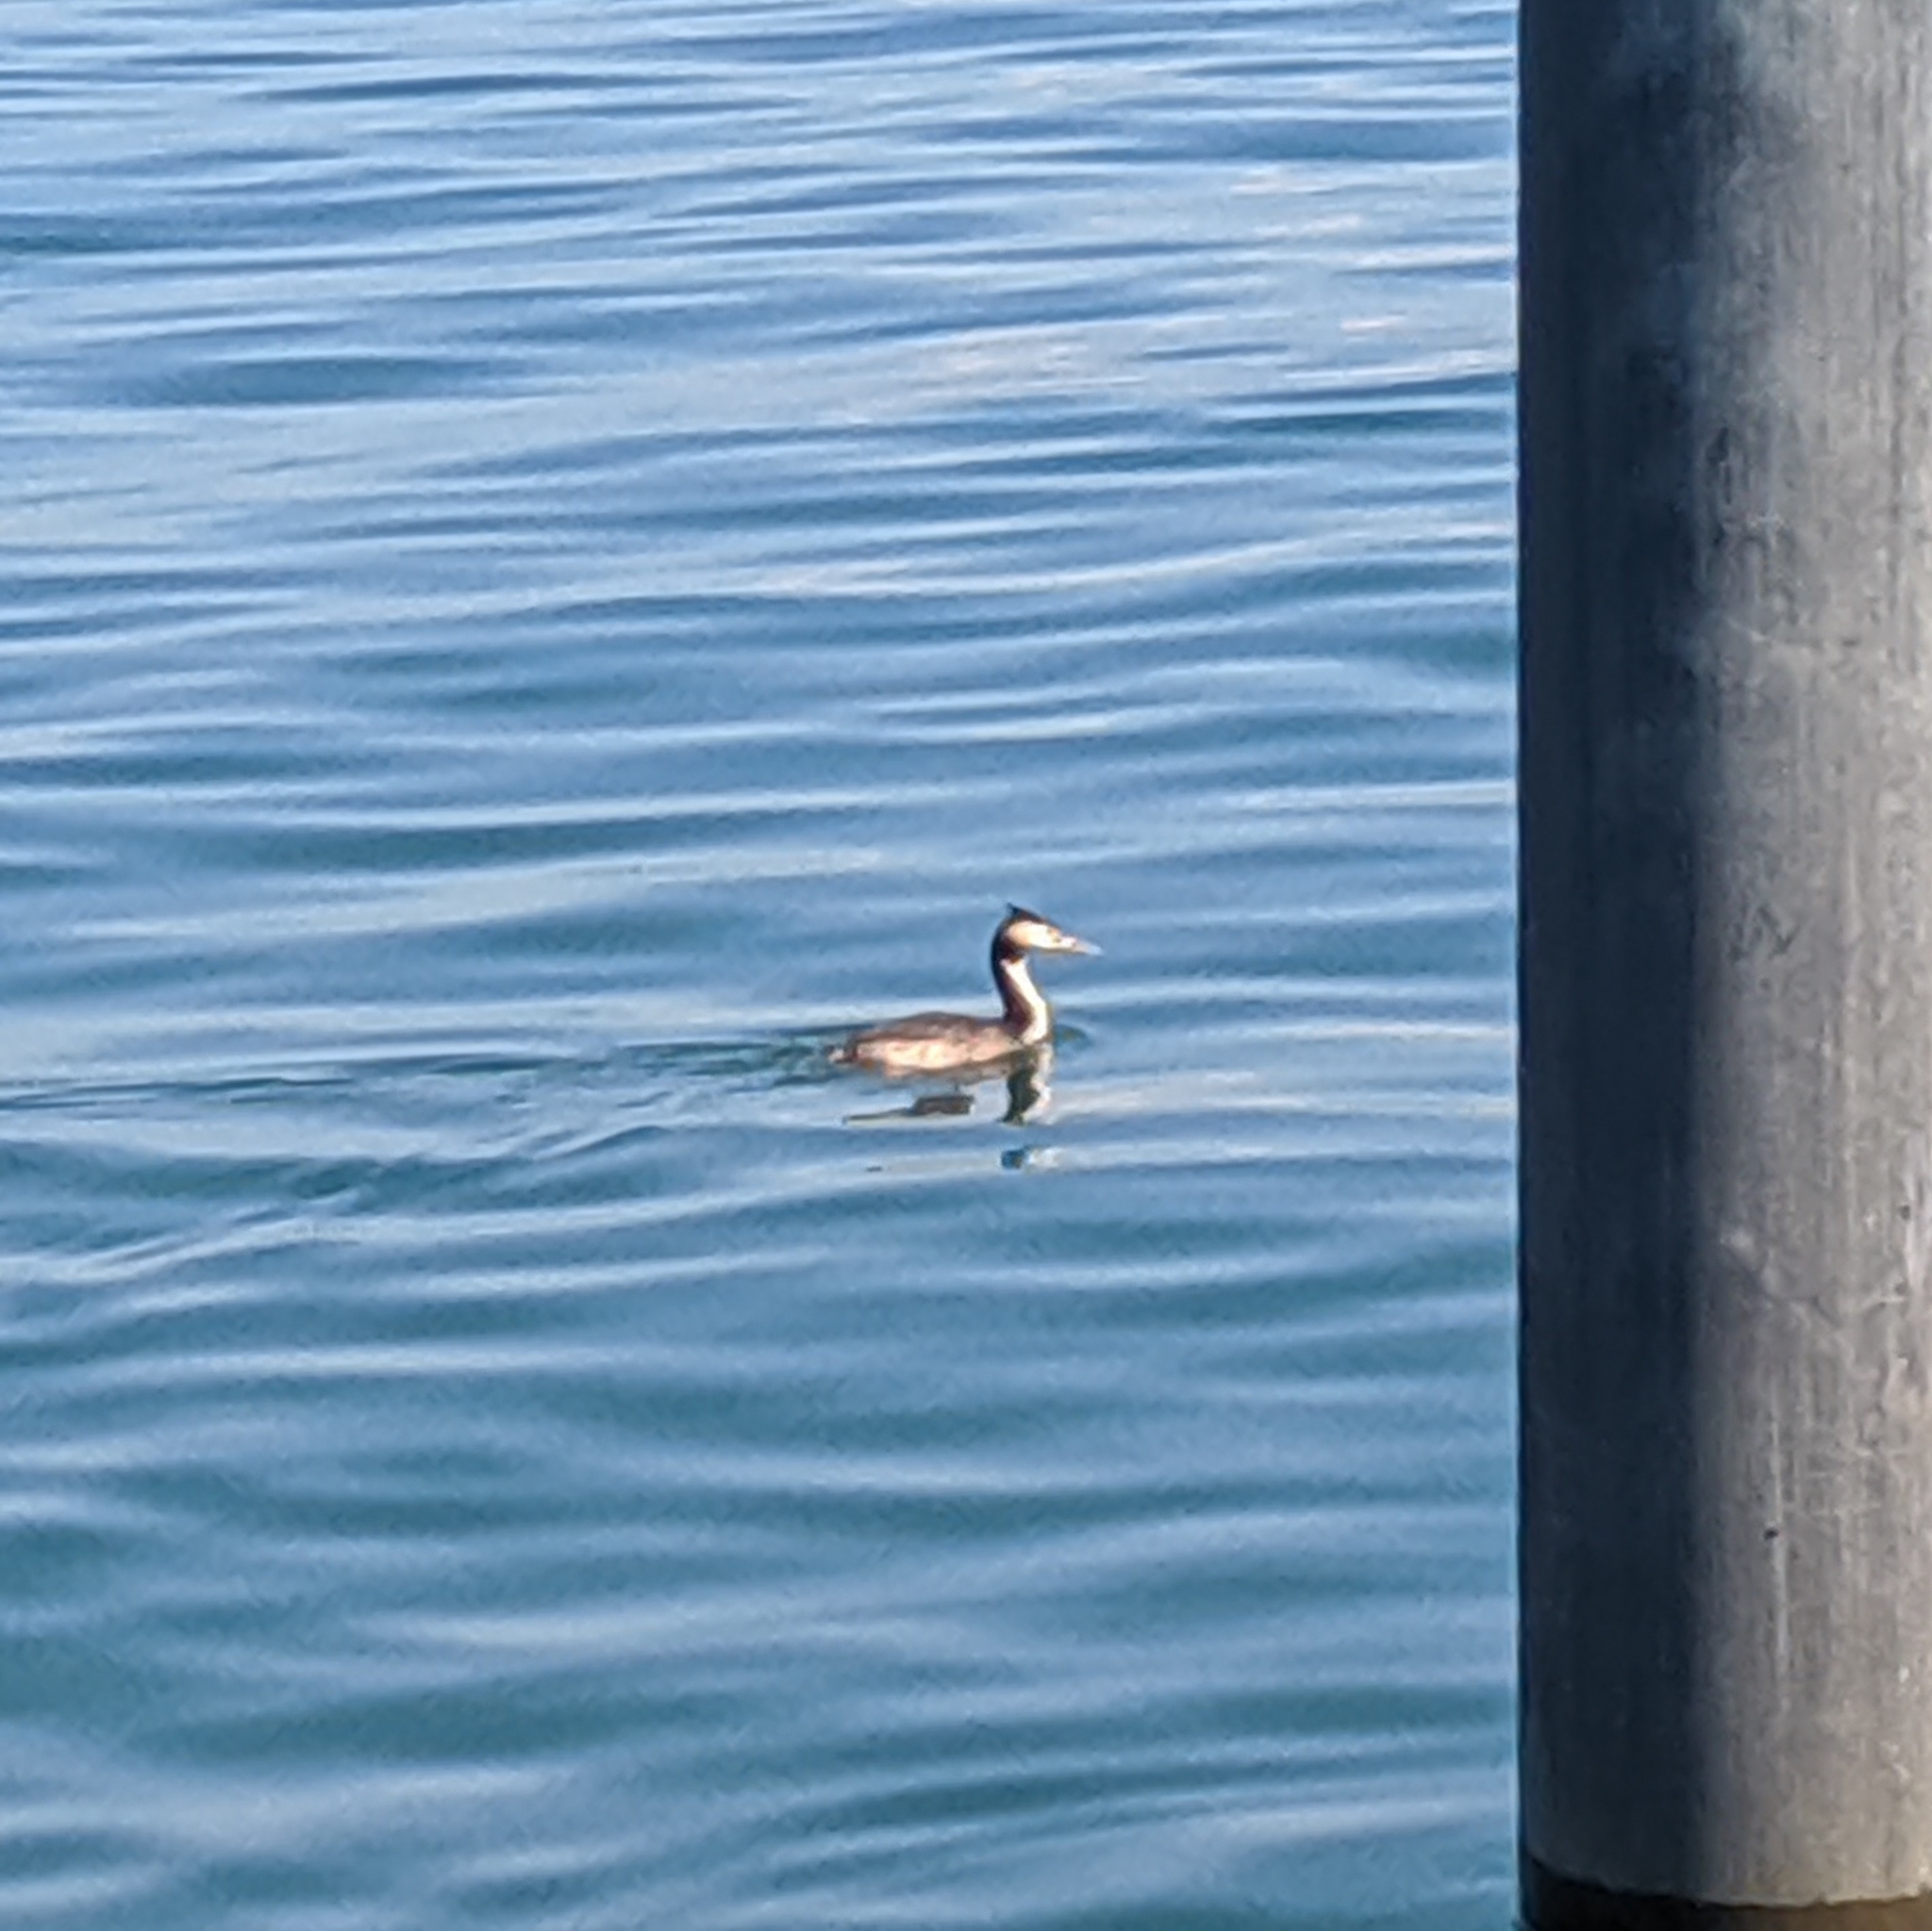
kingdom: Animalia
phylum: Chordata
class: Aves
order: Podicipediformes
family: Podicipedidae
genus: Podiceps
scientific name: Podiceps cristatus
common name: Great crested grebe
